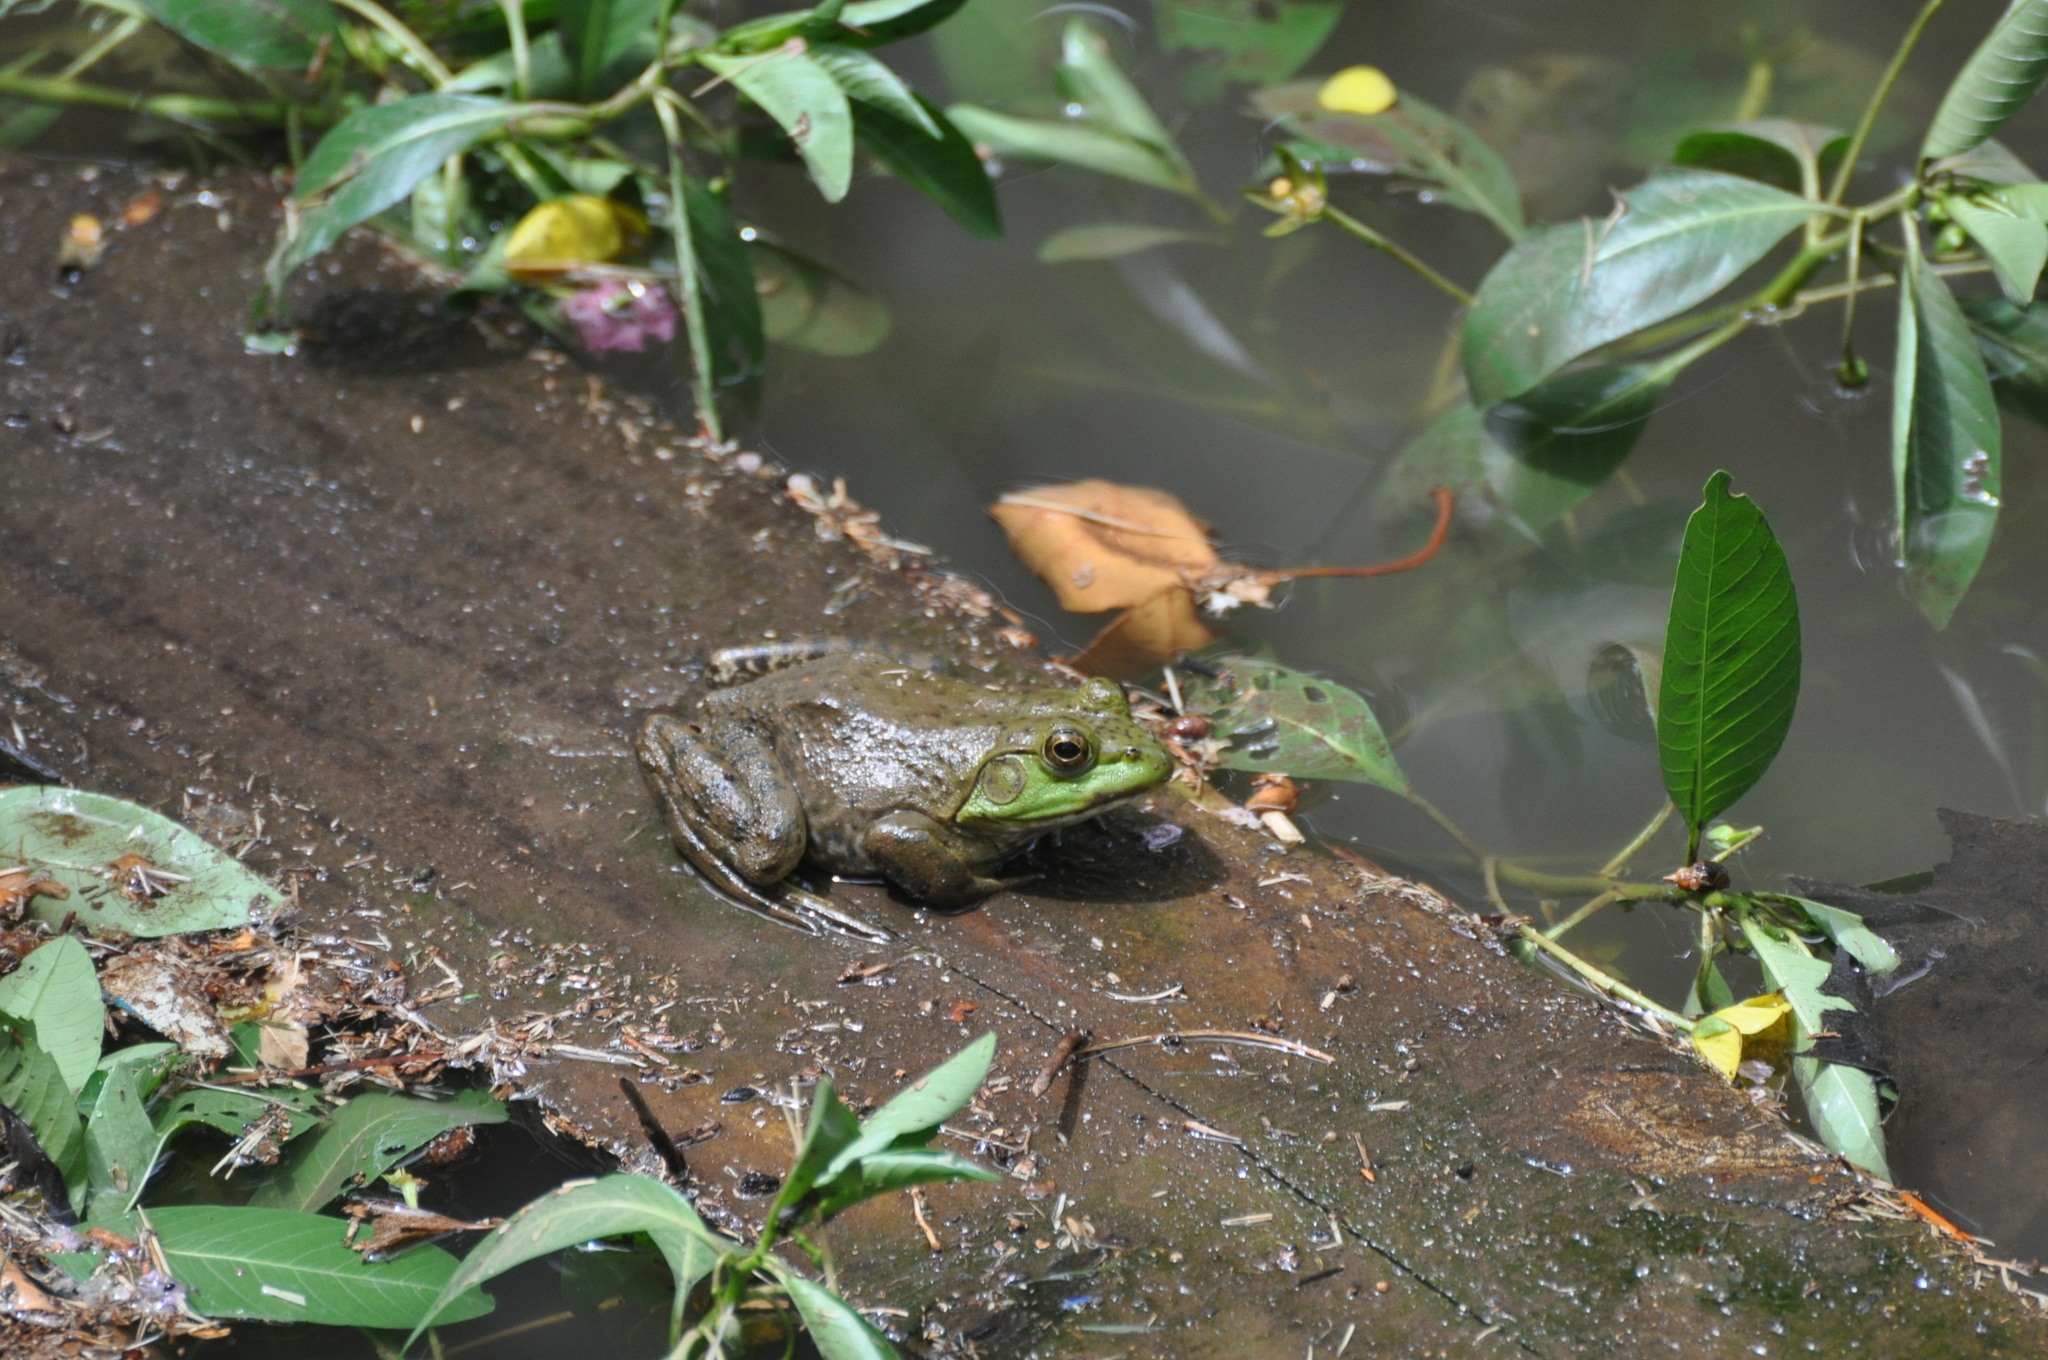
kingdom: Animalia
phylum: Chordata
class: Amphibia
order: Anura
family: Ranidae
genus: Lithobates
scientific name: Lithobates catesbeianus
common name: American bullfrog
